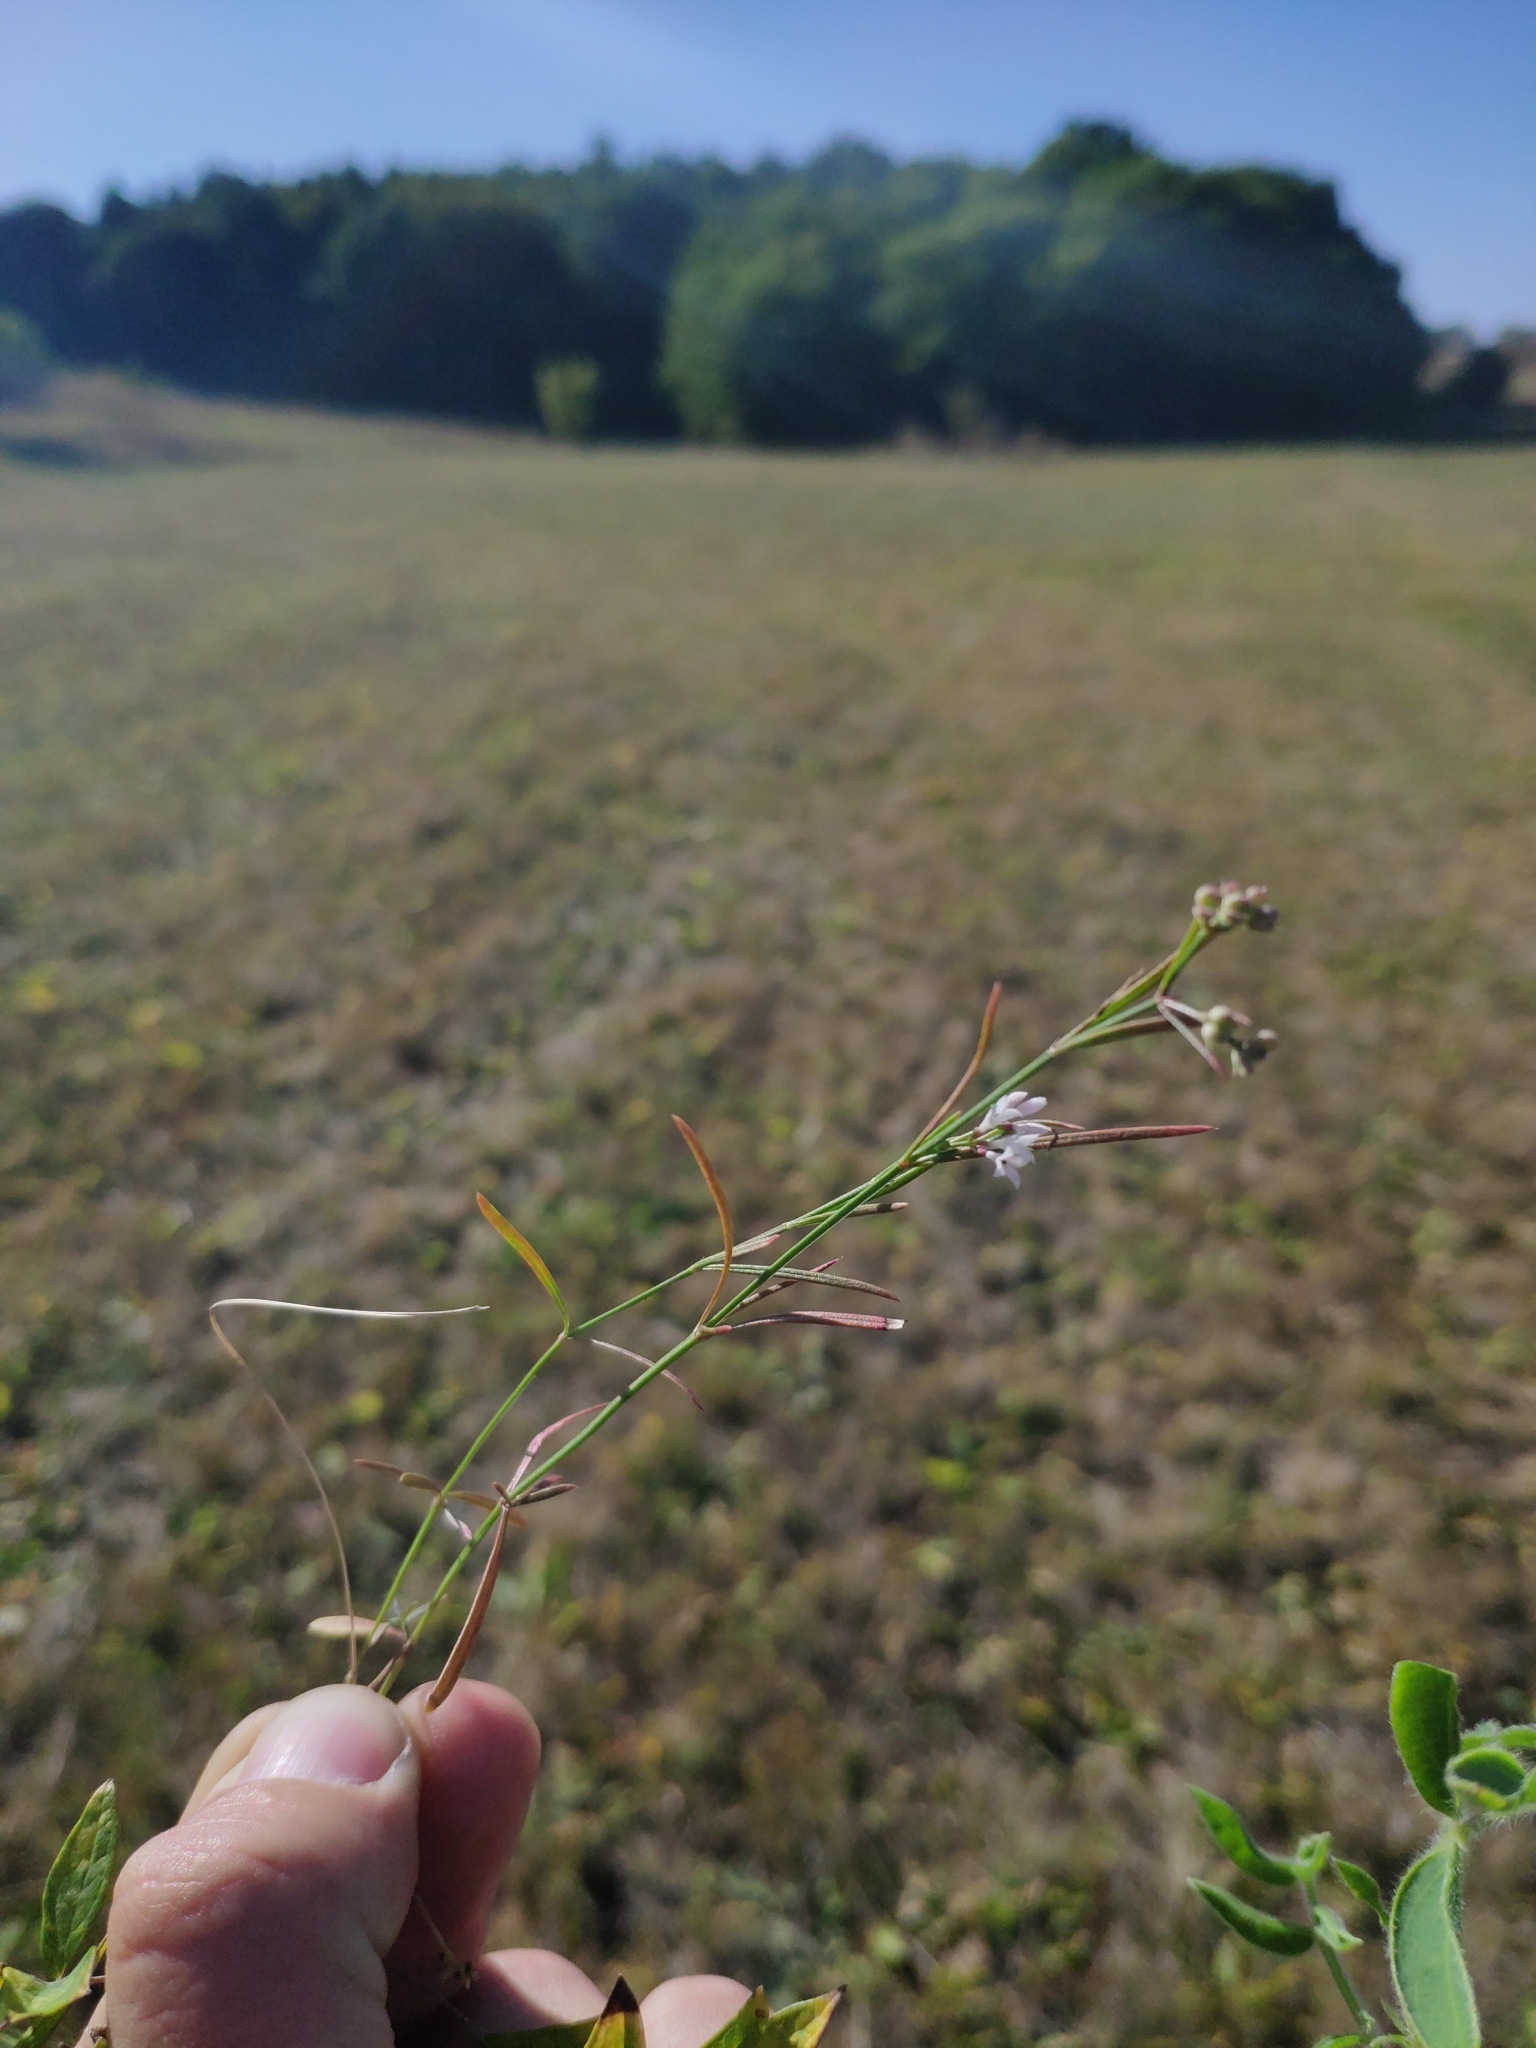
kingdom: Plantae
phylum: Tracheophyta
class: Magnoliopsida
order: Gentianales
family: Rubiaceae
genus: Cynanchica
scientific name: Cynanchica pyrenaica
